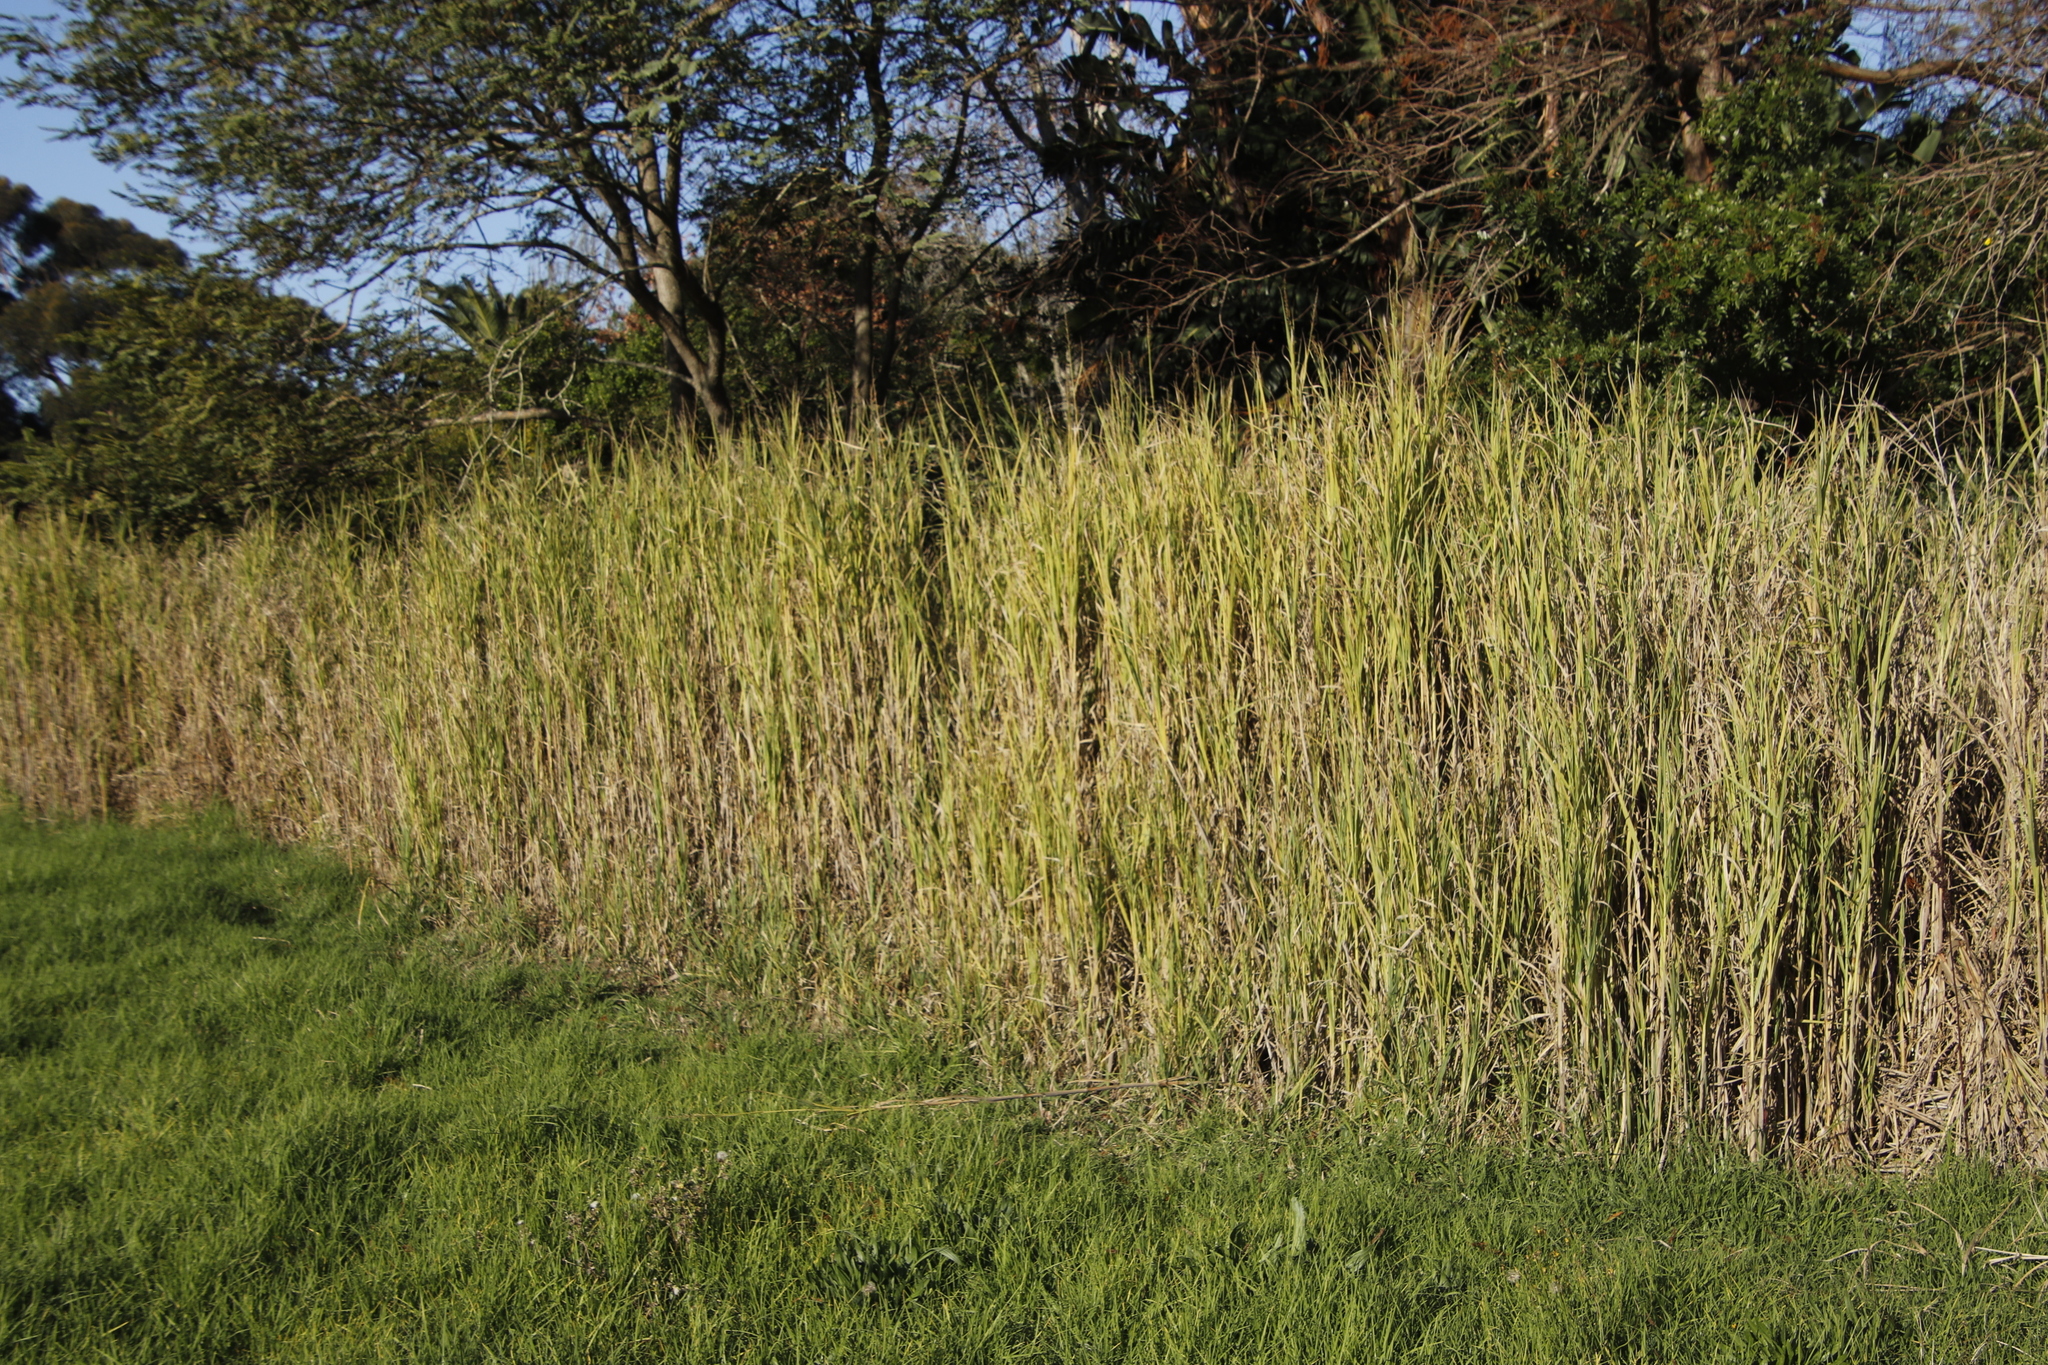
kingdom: Plantae
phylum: Tracheophyta
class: Liliopsida
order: Poales
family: Poaceae
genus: Echinochloa
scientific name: Echinochloa pyramidalis
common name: Antelope grass
